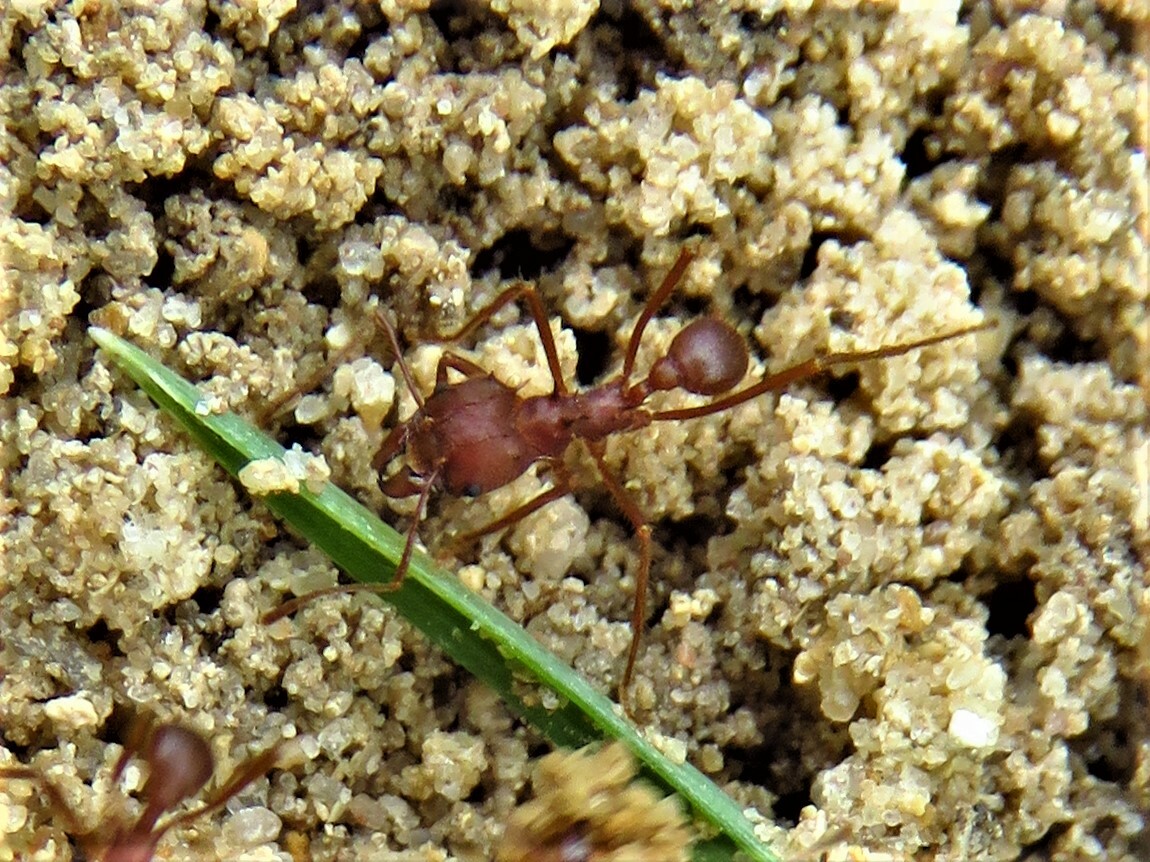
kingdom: Animalia
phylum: Arthropoda
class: Insecta
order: Hymenoptera
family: Formicidae
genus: Atta
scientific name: Atta texana
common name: Texas leafcutting ant
